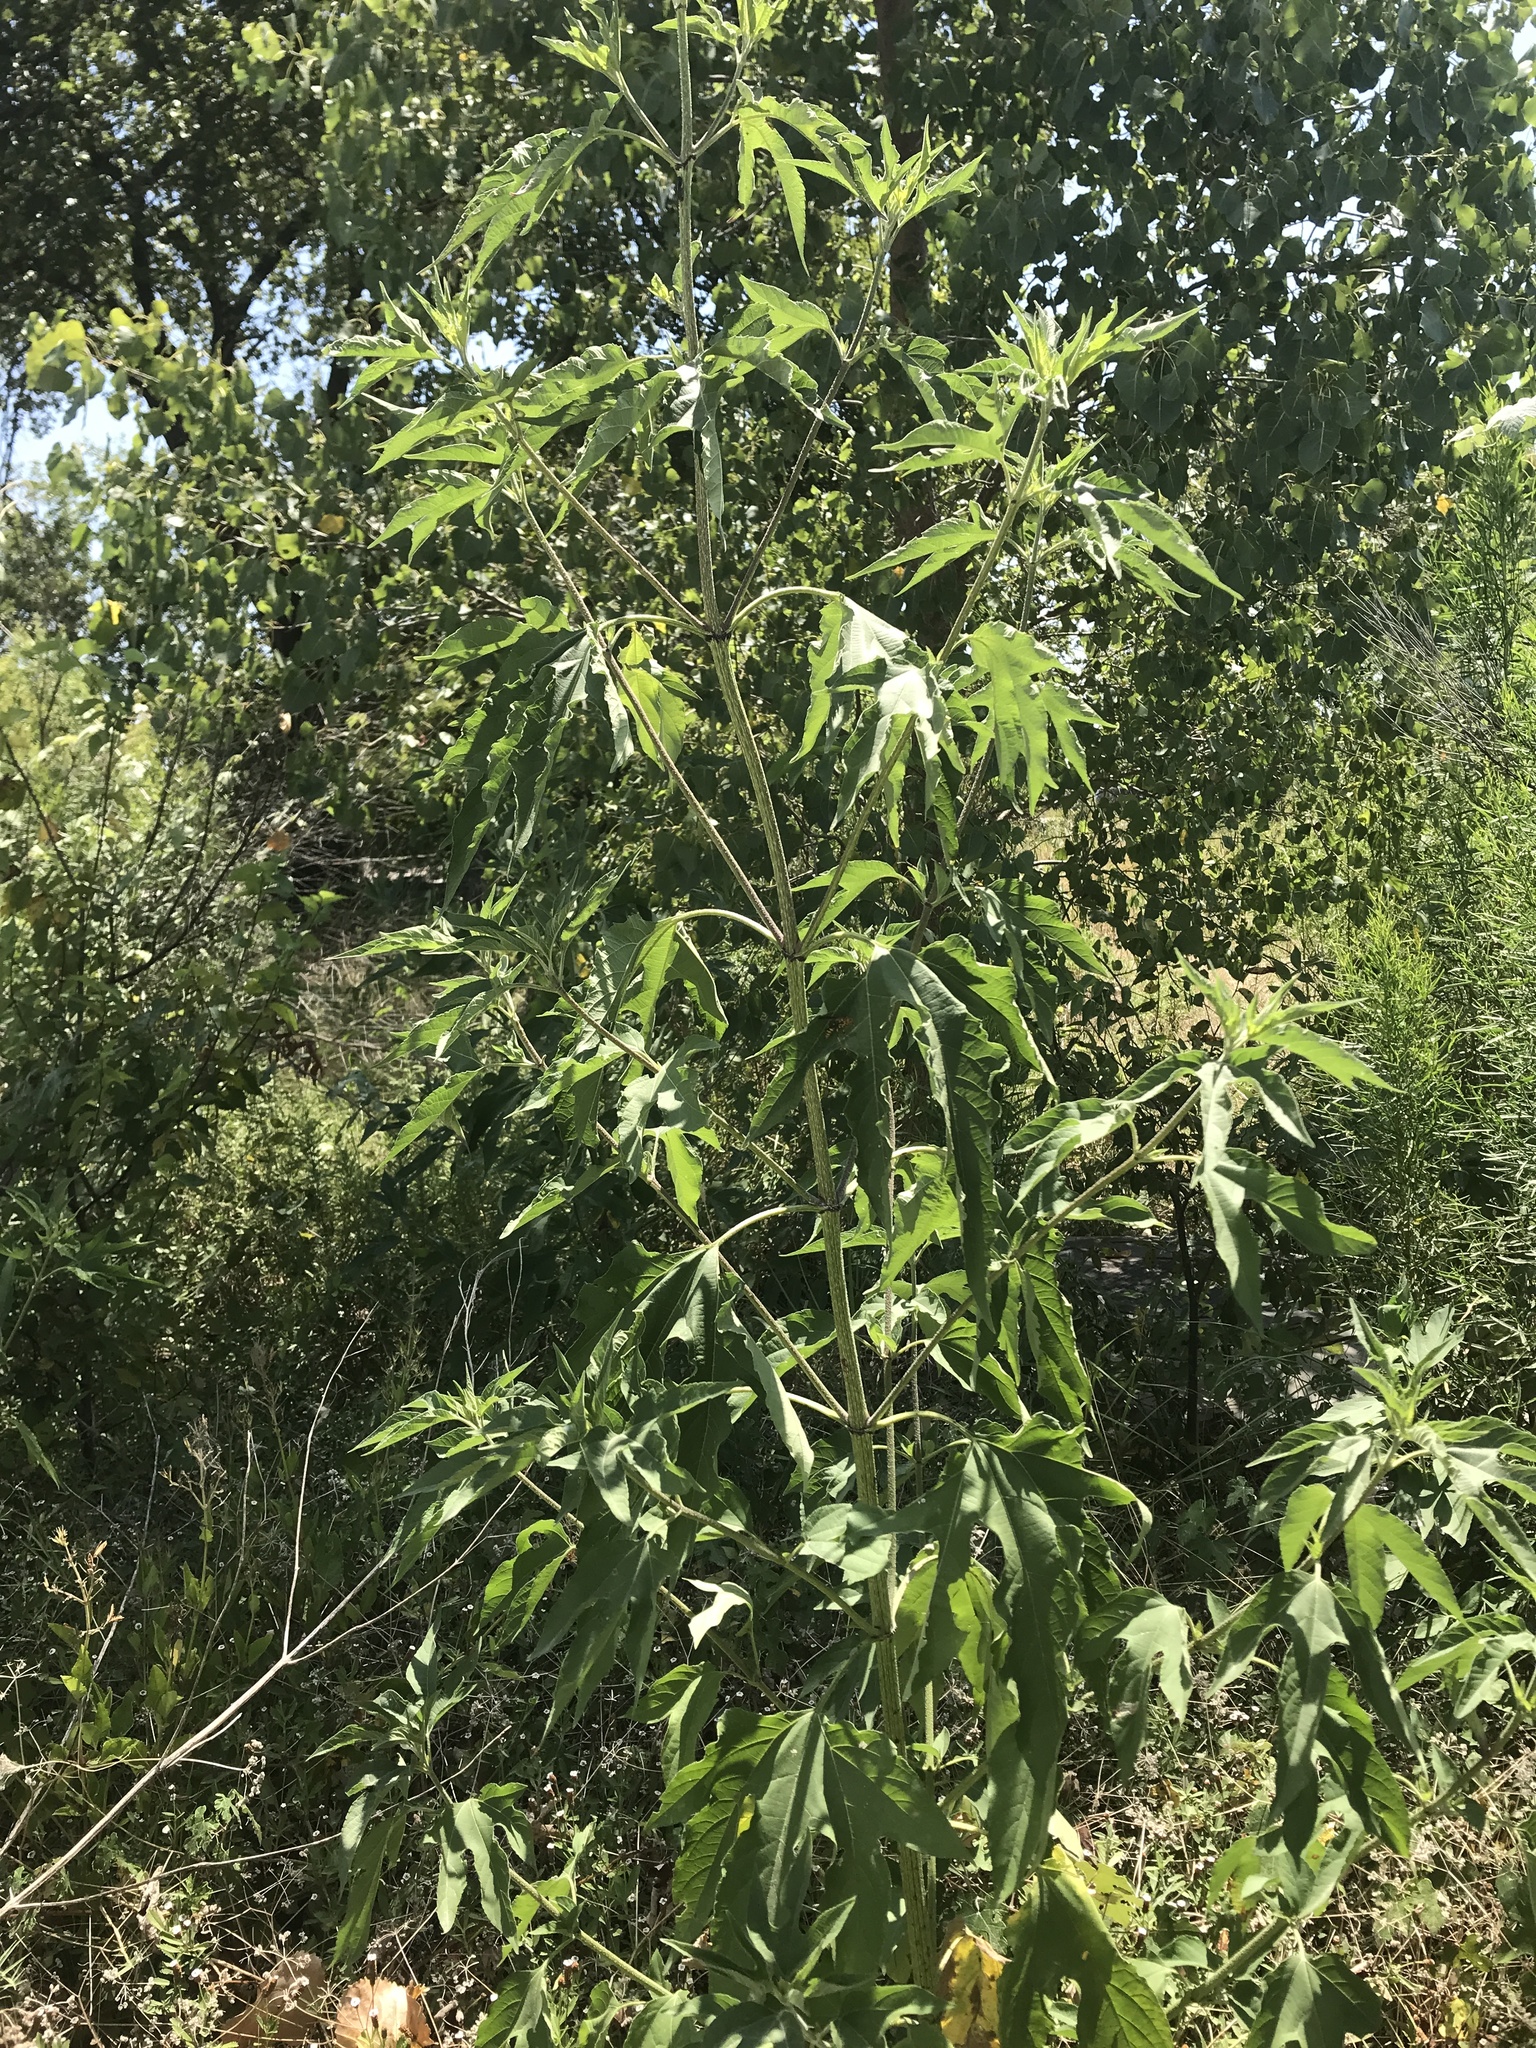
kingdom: Plantae
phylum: Tracheophyta
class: Magnoliopsida
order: Asterales
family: Asteraceae
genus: Ambrosia
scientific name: Ambrosia trifida
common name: Giant ragweed
